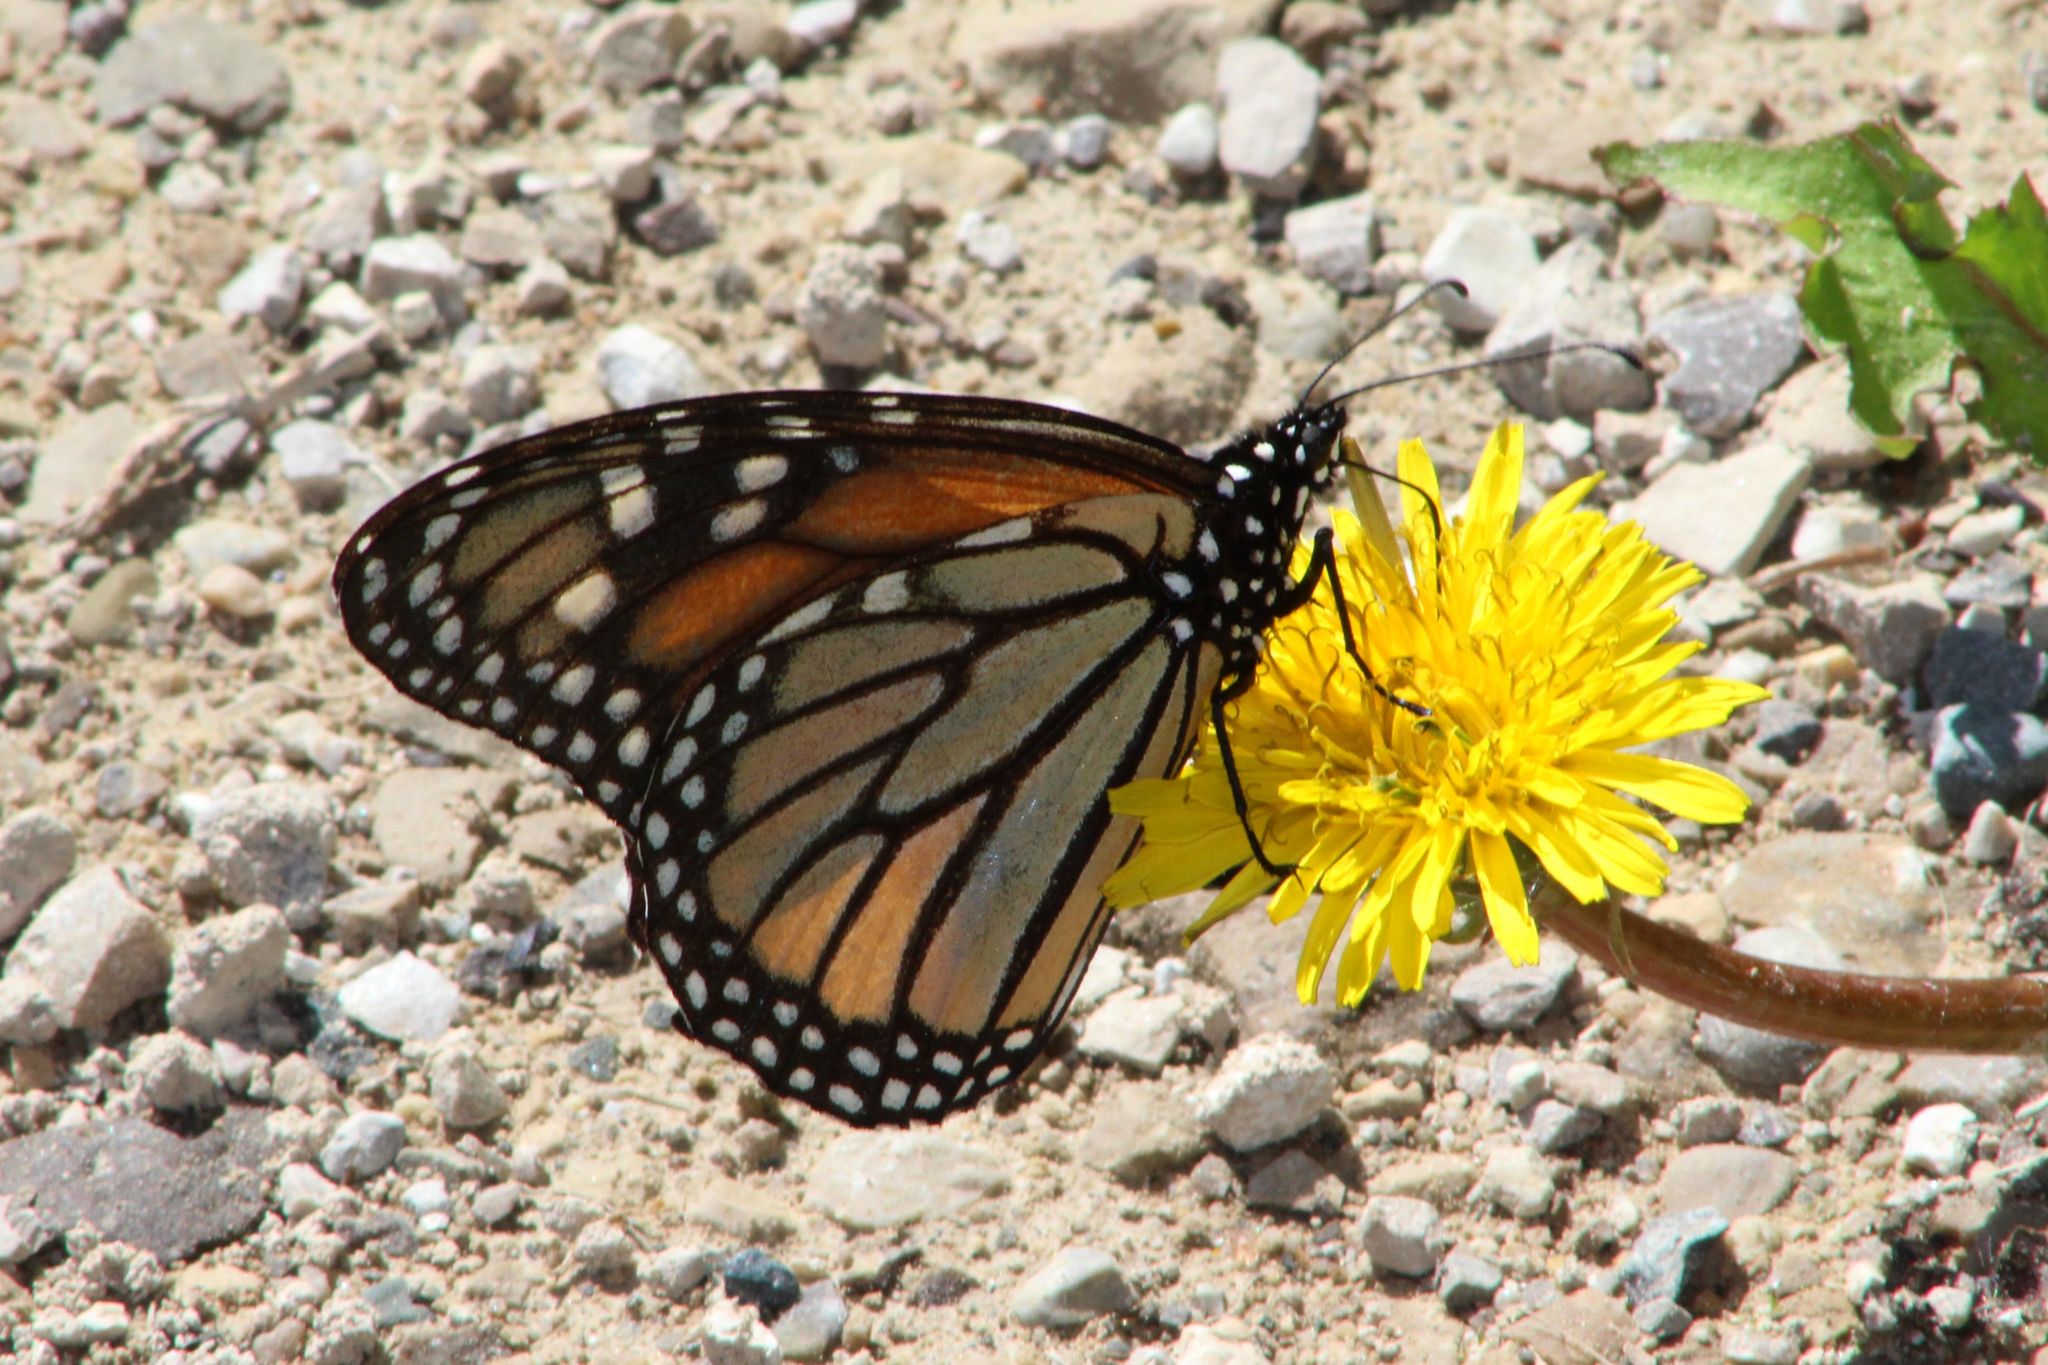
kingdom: Animalia
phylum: Arthropoda
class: Insecta
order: Lepidoptera
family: Nymphalidae
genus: Danaus
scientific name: Danaus plexippus
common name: Monarch
